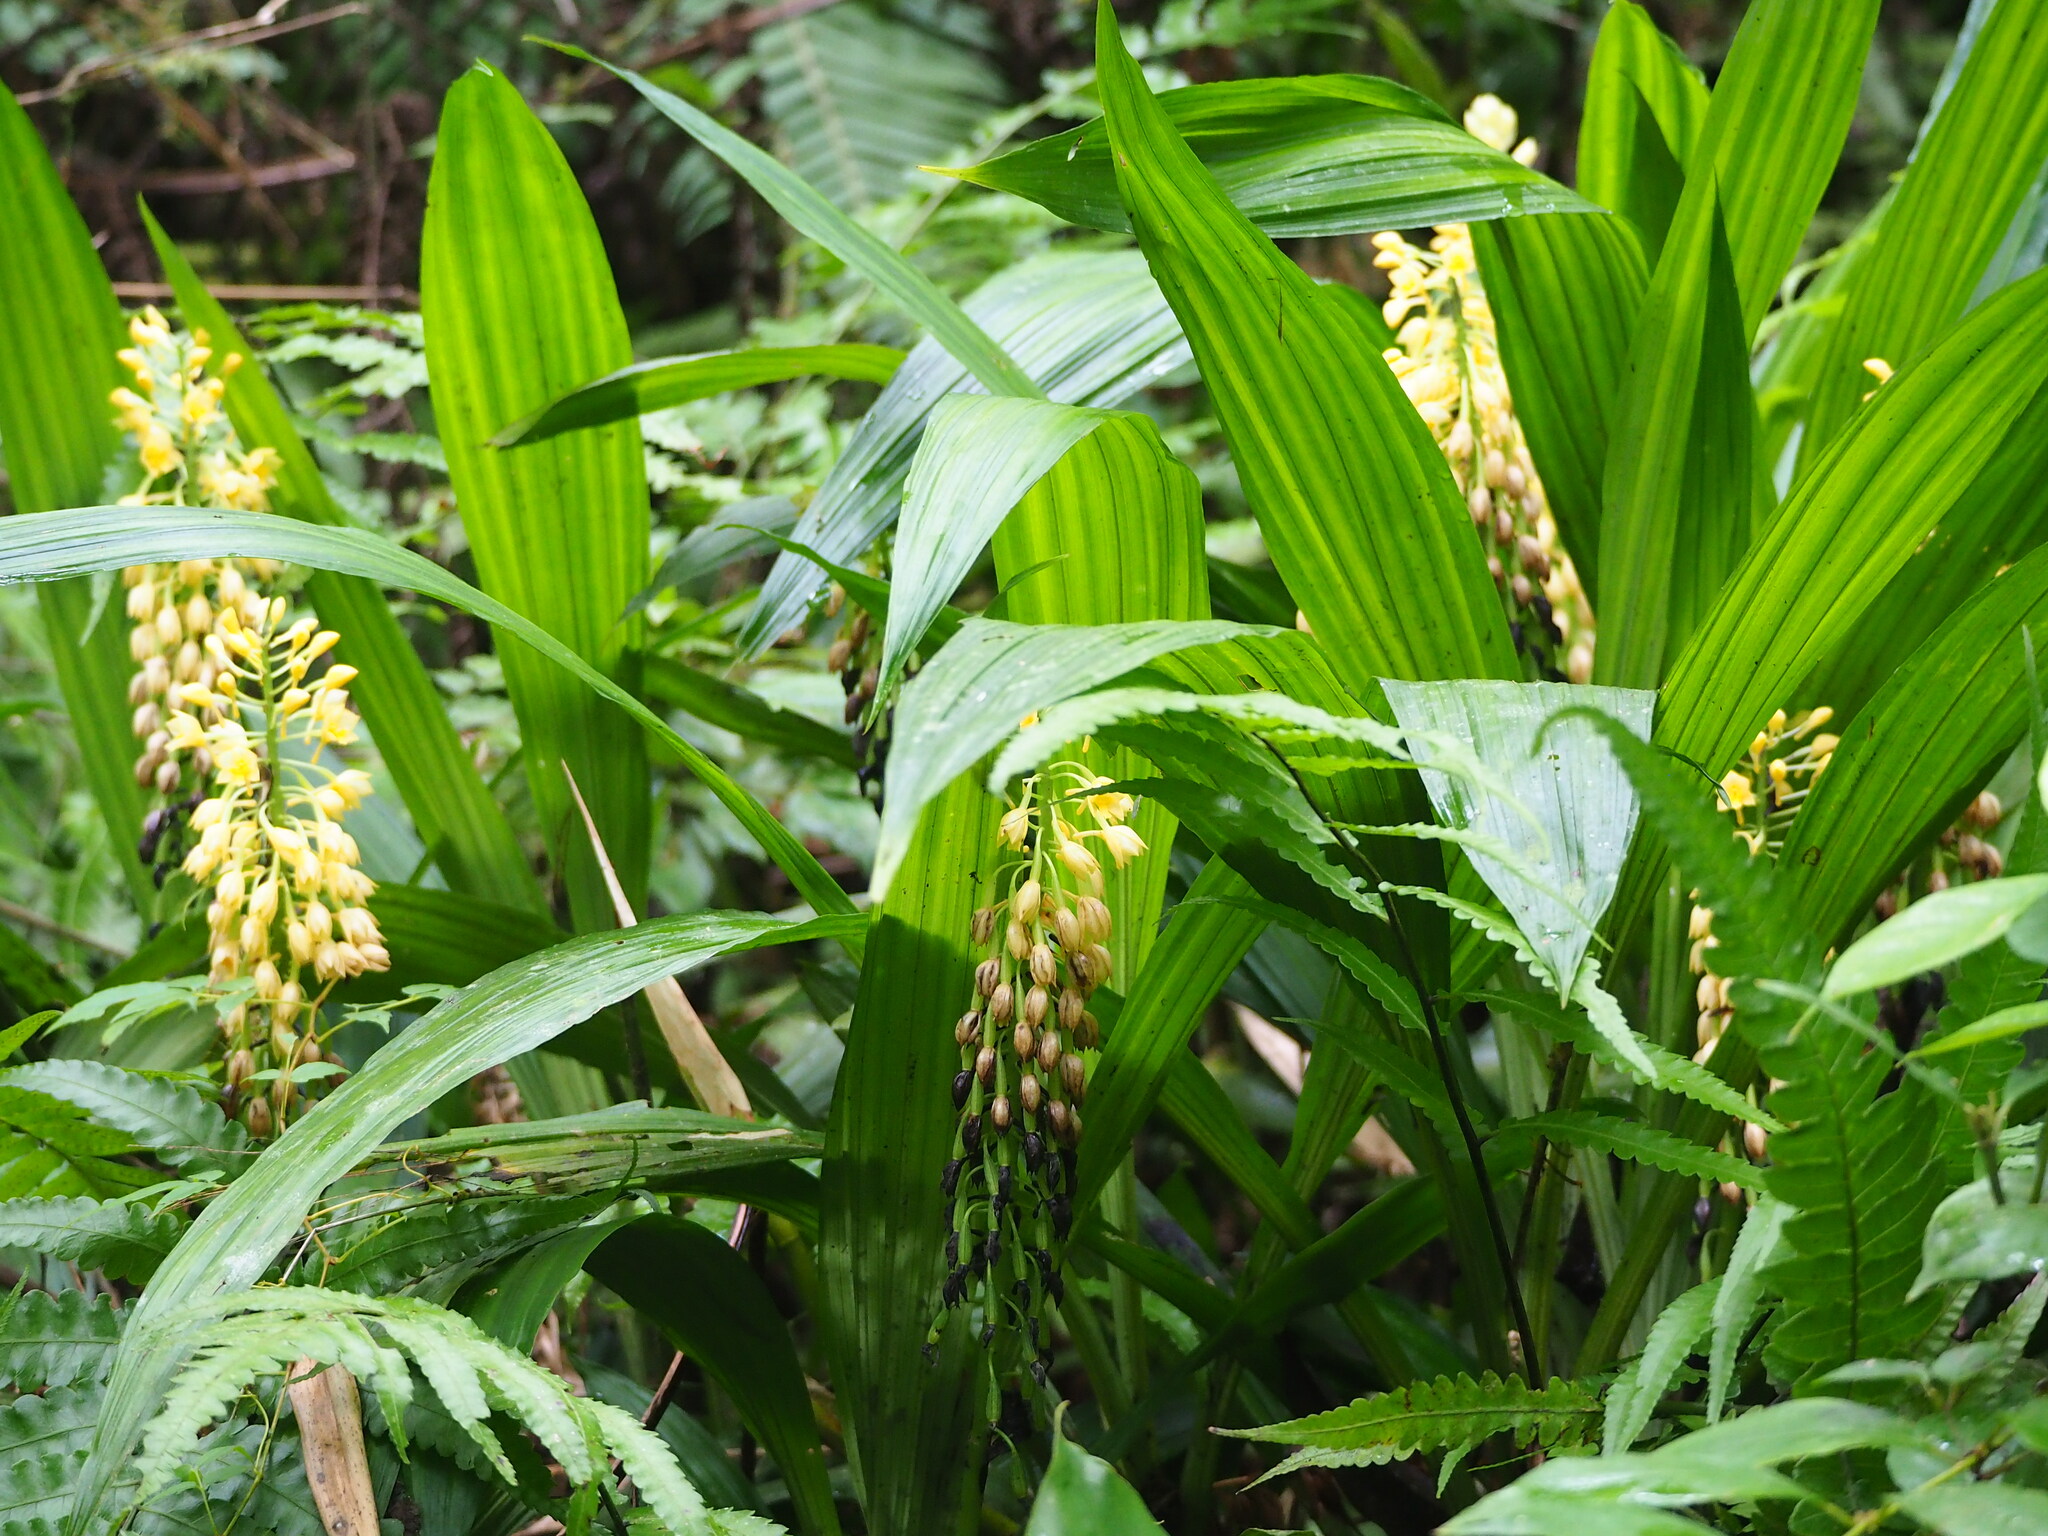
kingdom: Plantae
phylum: Tracheophyta
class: Liliopsida
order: Asparagales
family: Orchidaceae
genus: Calanthe
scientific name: Calanthe formosana
